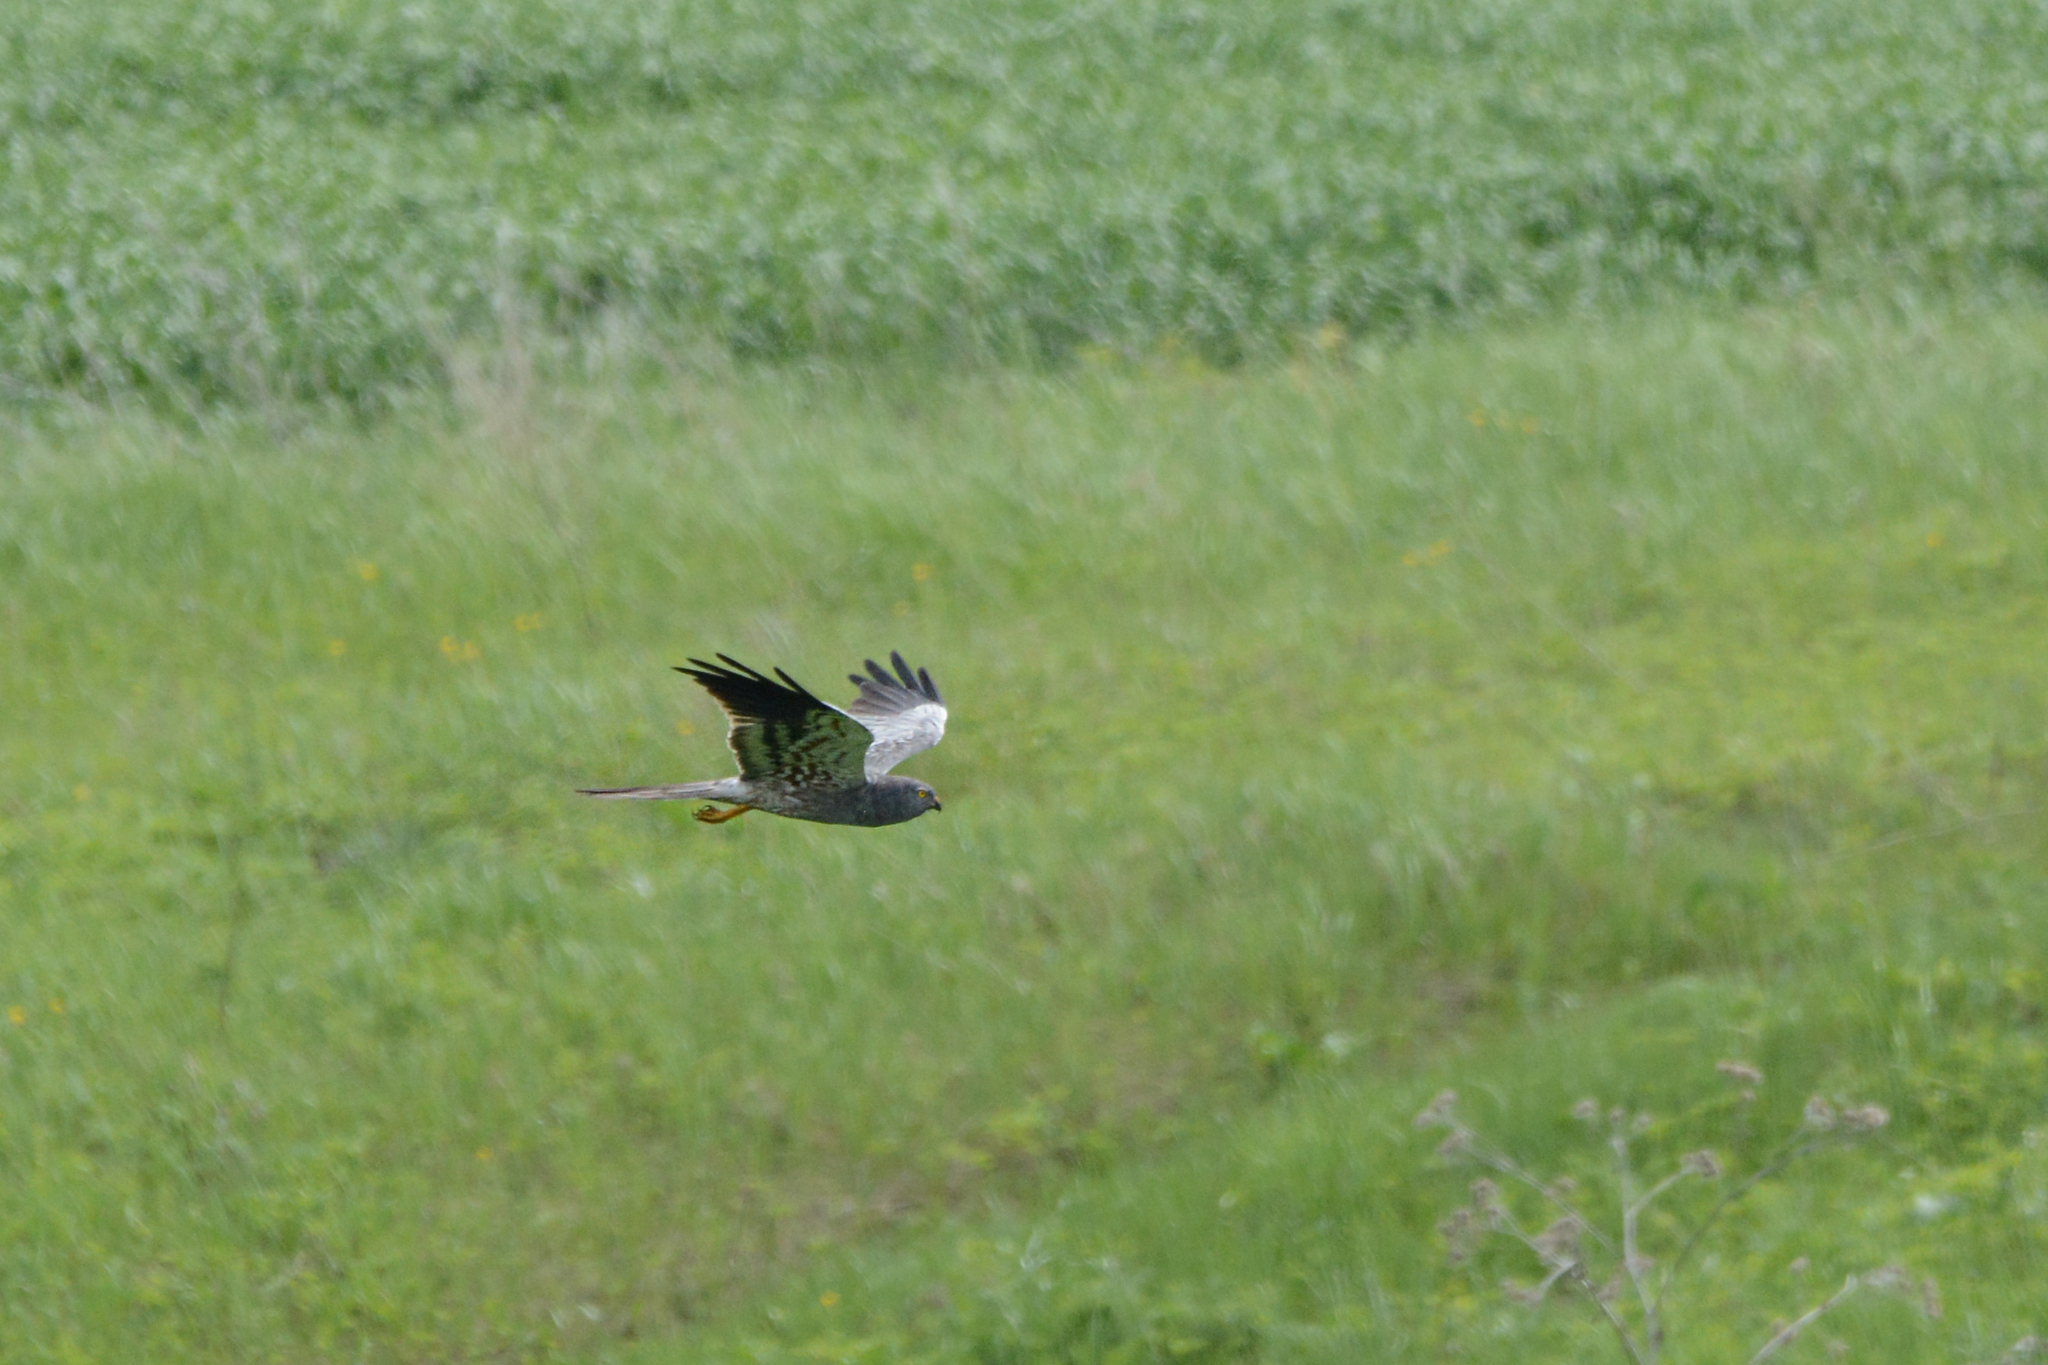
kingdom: Animalia
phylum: Chordata
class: Aves
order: Accipitriformes
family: Accipitridae
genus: Circus
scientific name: Circus pygargus
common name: Montagu's harrier
